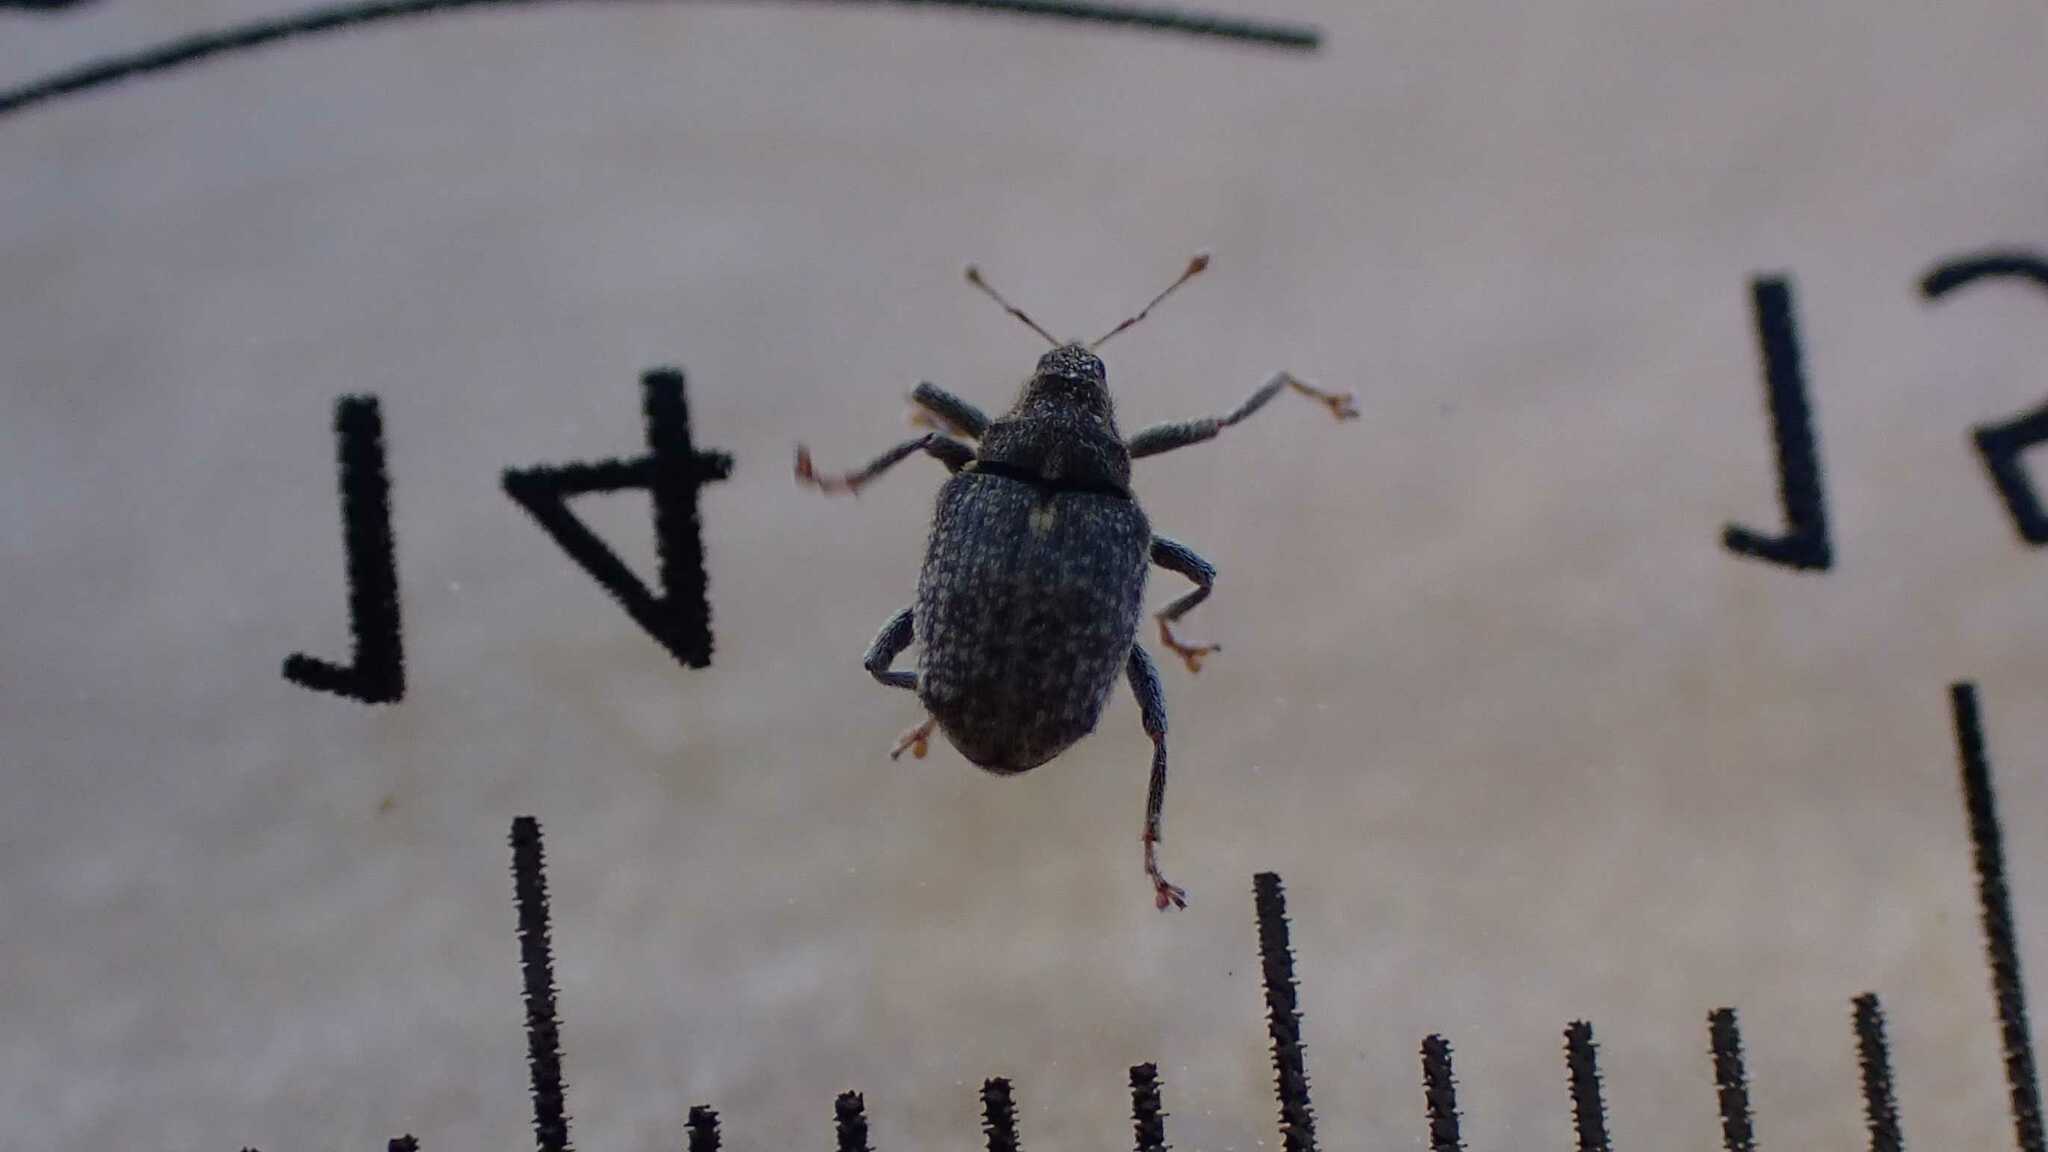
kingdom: Animalia
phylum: Arthropoda
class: Insecta
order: Coleoptera
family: Curculionidae
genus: Ceutorhynchus
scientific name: Ceutorhynchus pallidactylus
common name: Cabbage stem weavil
